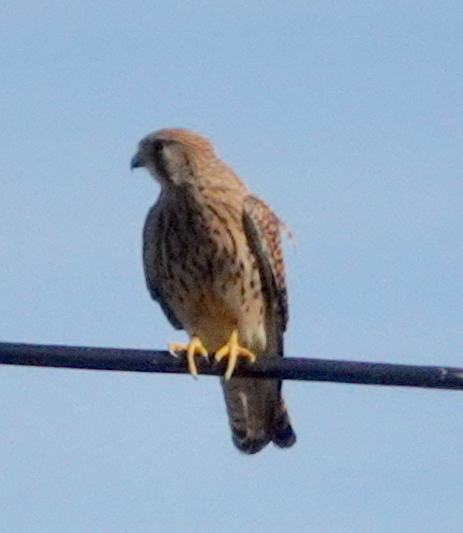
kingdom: Animalia
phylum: Chordata
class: Aves
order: Falconiformes
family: Falconidae
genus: Falco
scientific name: Falco tinnunculus
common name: Common kestrel
